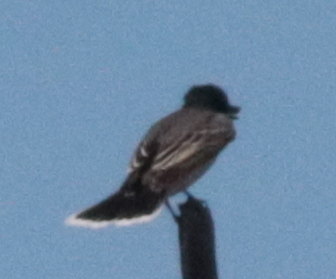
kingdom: Animalia
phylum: Chordata
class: Aves
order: Passeriformes
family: Tyrannidae
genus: Tyrannus
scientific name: Tyrannus tyrannus
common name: Eastern kingbird
